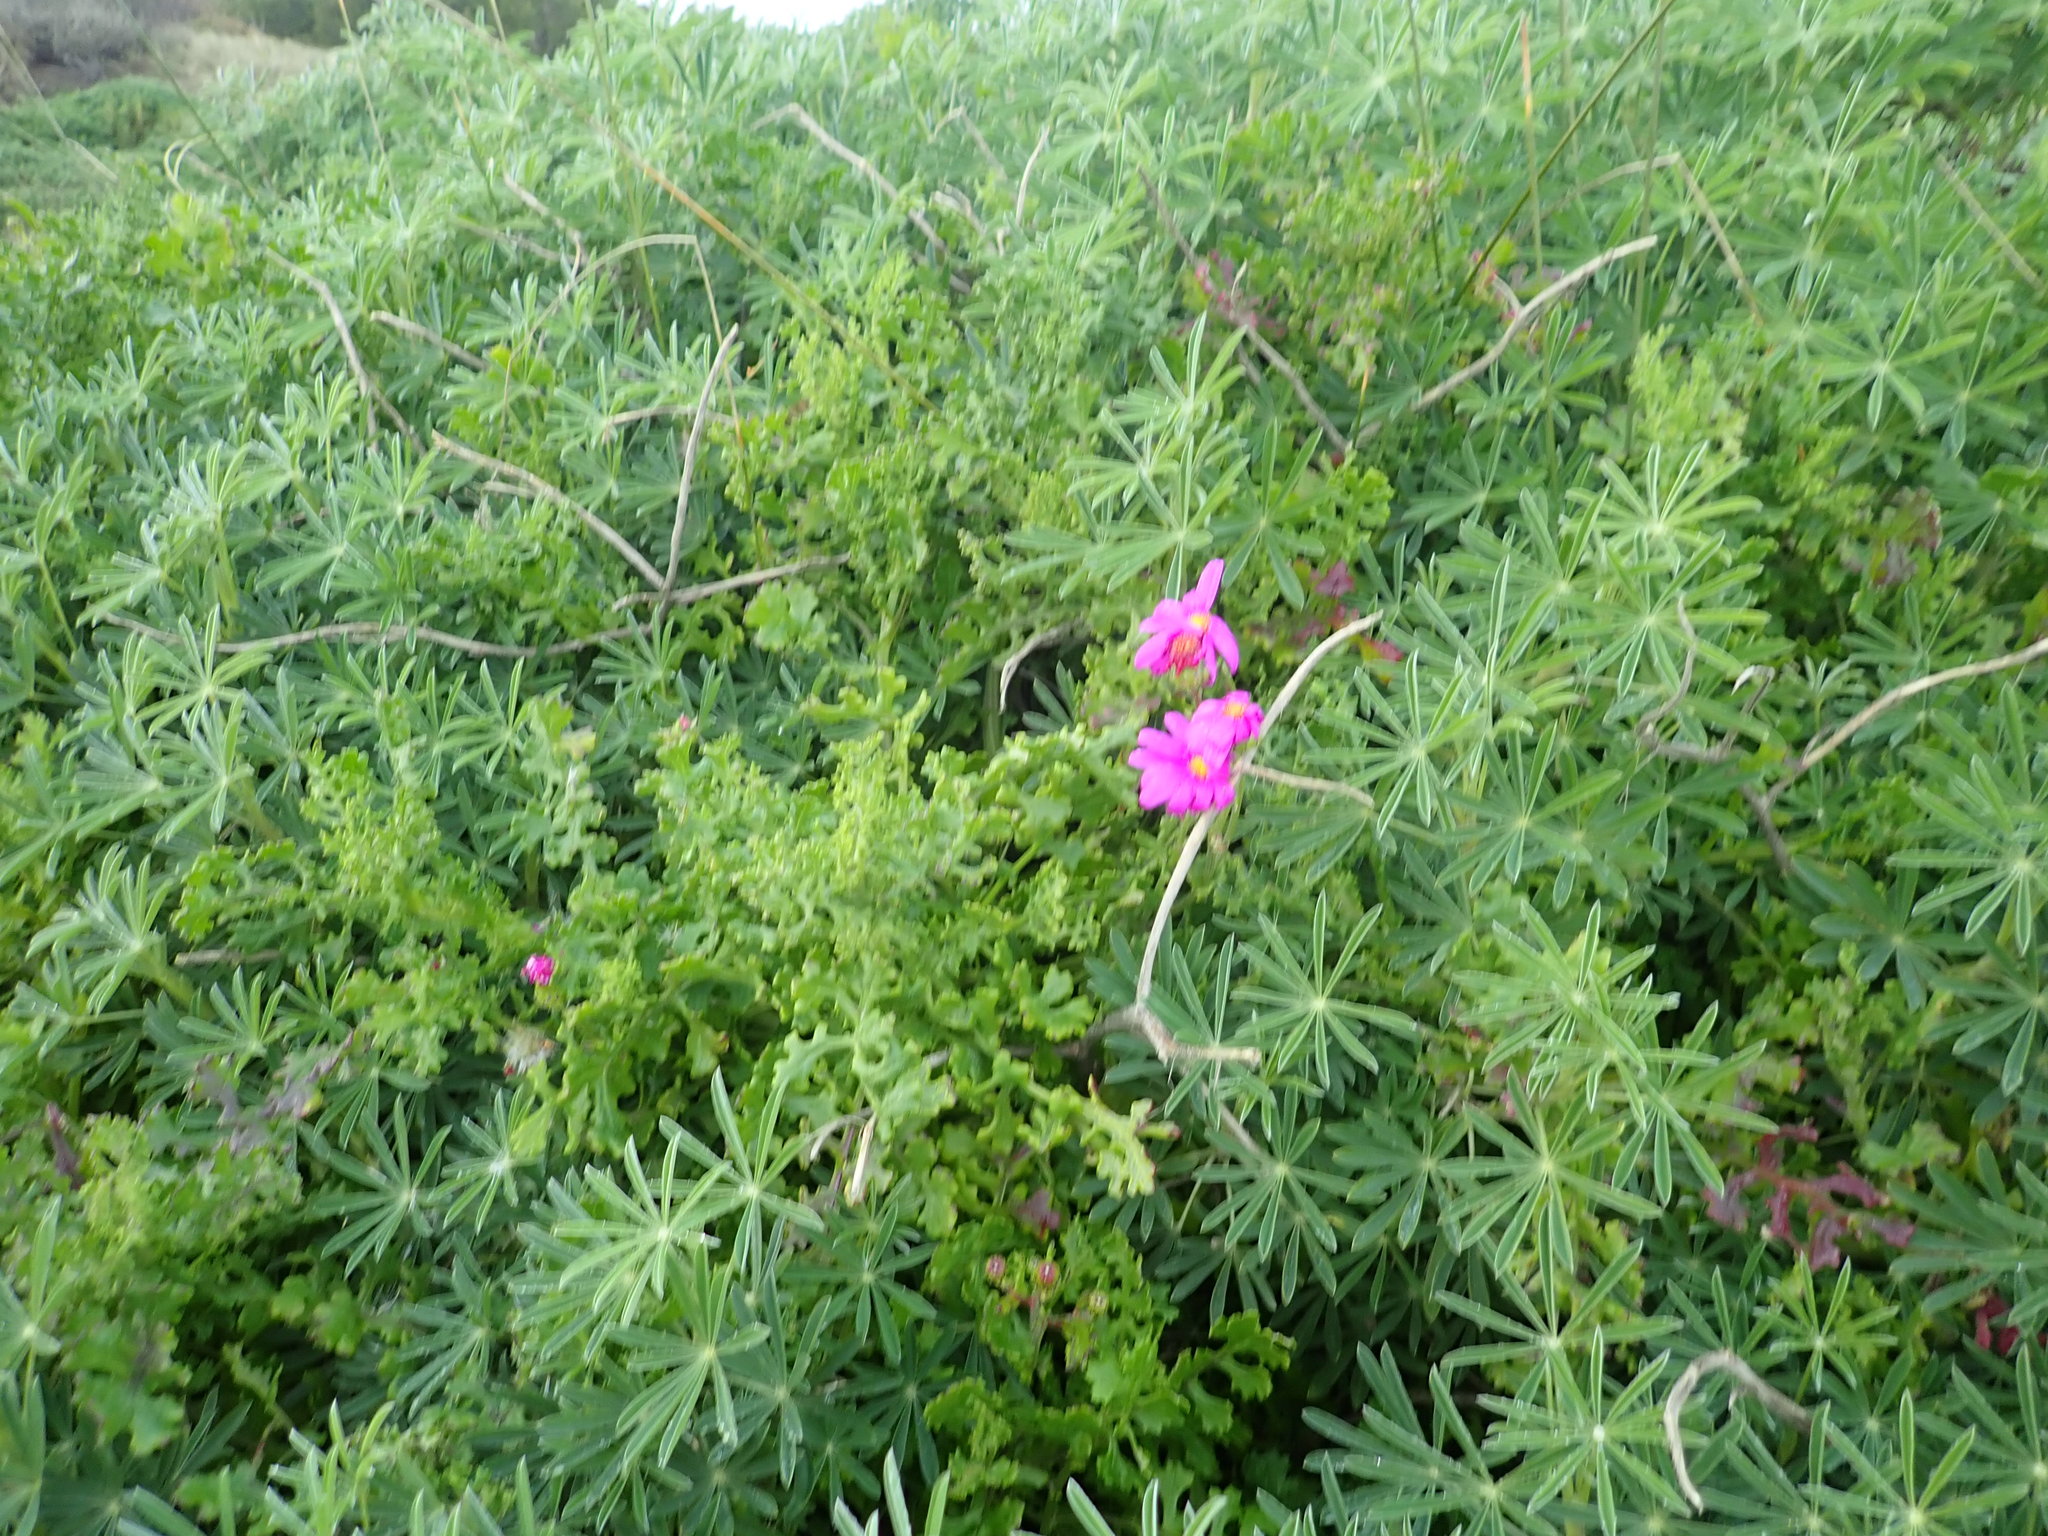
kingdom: Plantae
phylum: Tracheophyta
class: Magnoliopsida
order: Asterales
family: Asteraceae
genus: Senecio
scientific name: Senecio elegans
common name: Purple groundsel
